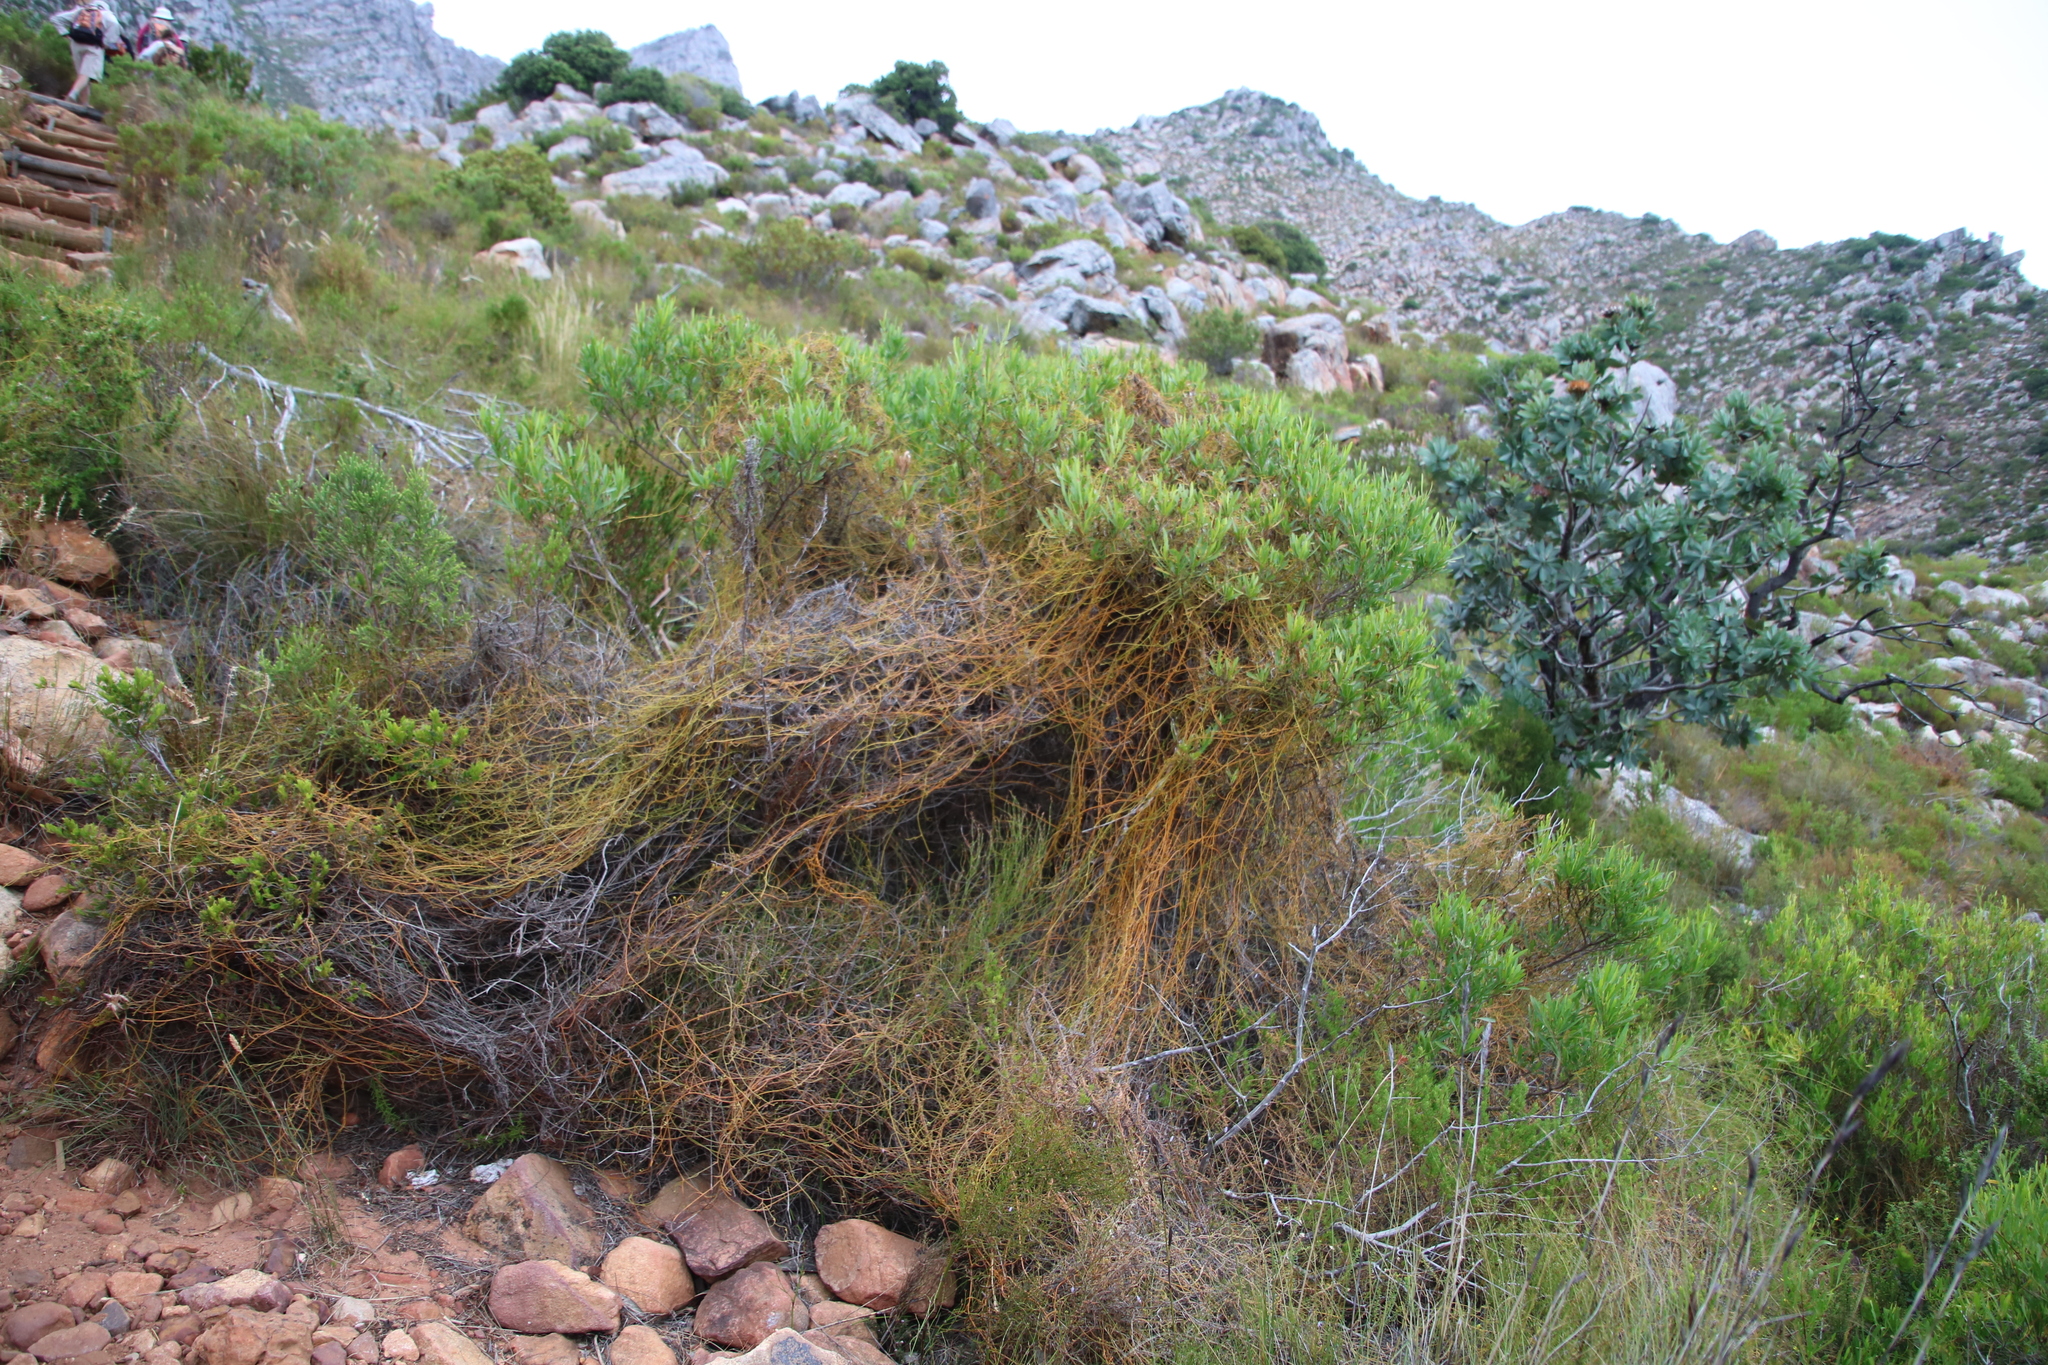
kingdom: Plantae
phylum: Tracheophyta
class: Magnoliopsida
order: Laurales
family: Lauraceae
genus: Cassytha
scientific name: Cassytha ciliolata
